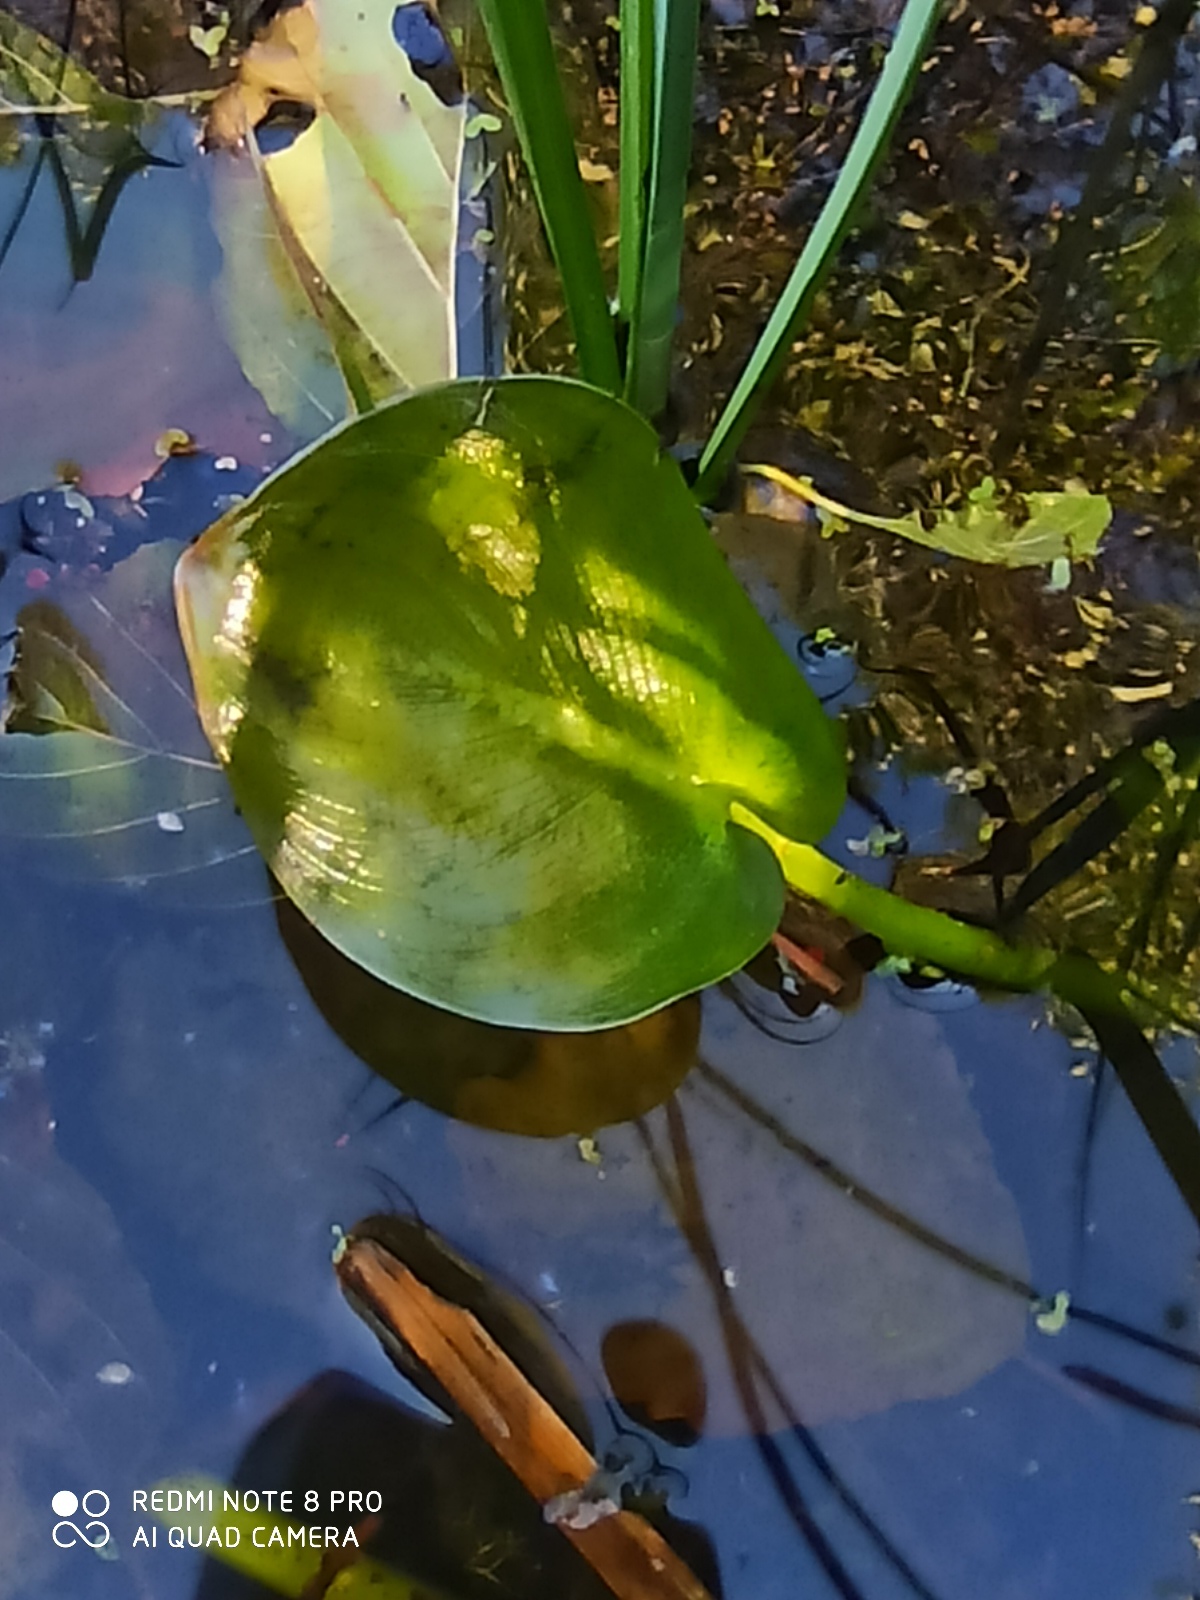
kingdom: Plantae
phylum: Tracheophyta
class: Liliopsida
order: Alismatales
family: Araceae
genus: Calla
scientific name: Calla palustris
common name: Bog arum
